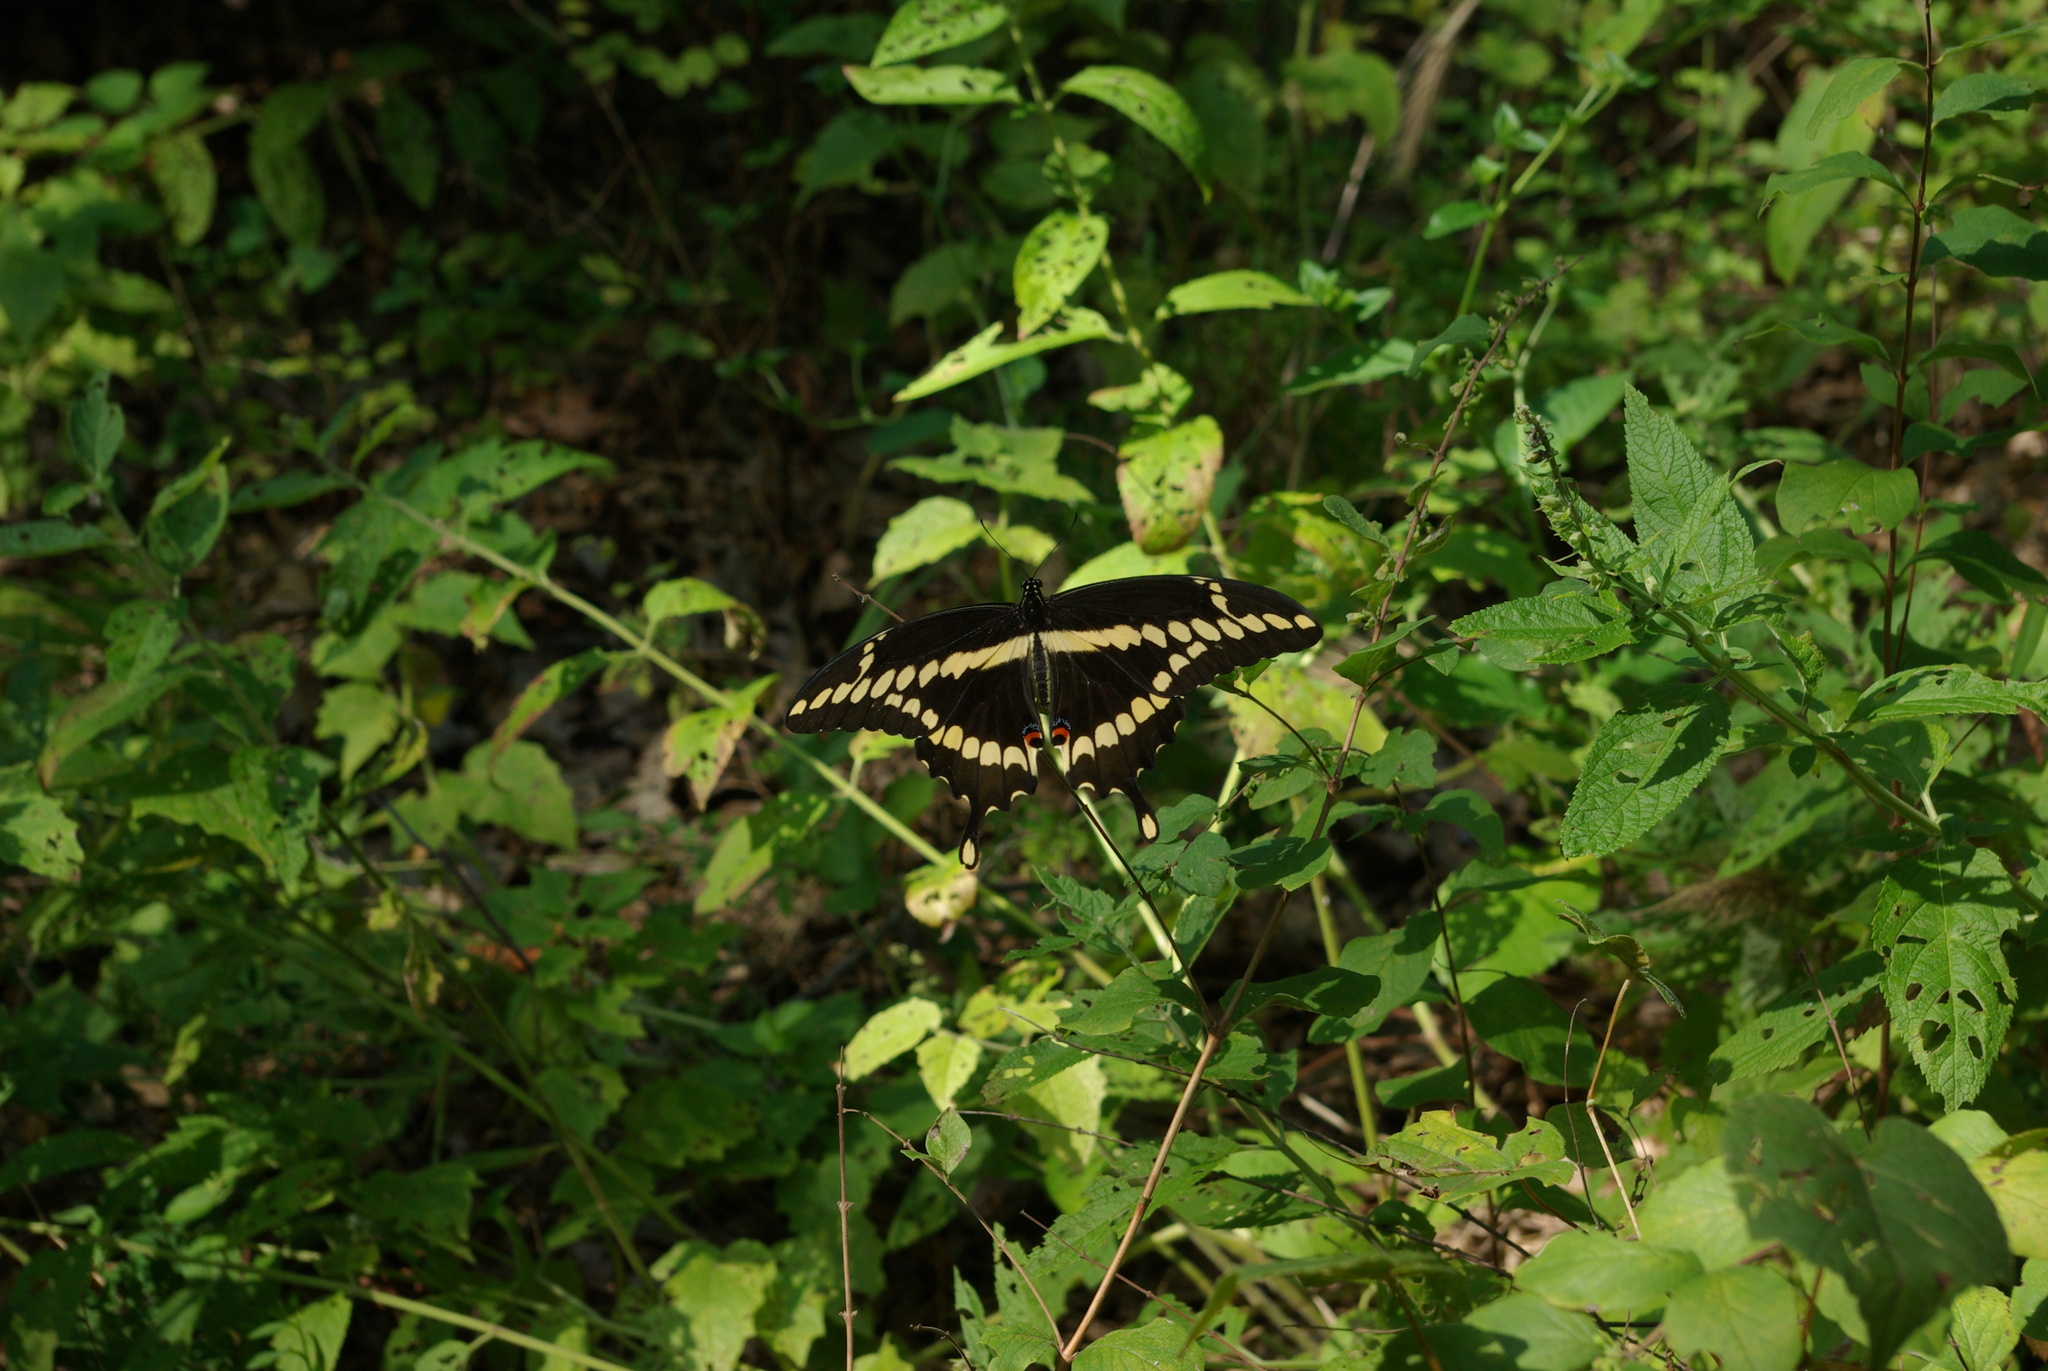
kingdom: Animalia
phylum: Arthropoda
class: Insecta
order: Lepidoptera
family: Papilionidae
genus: Papilio
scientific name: Papilio cresphontes
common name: Giant swallowtail
